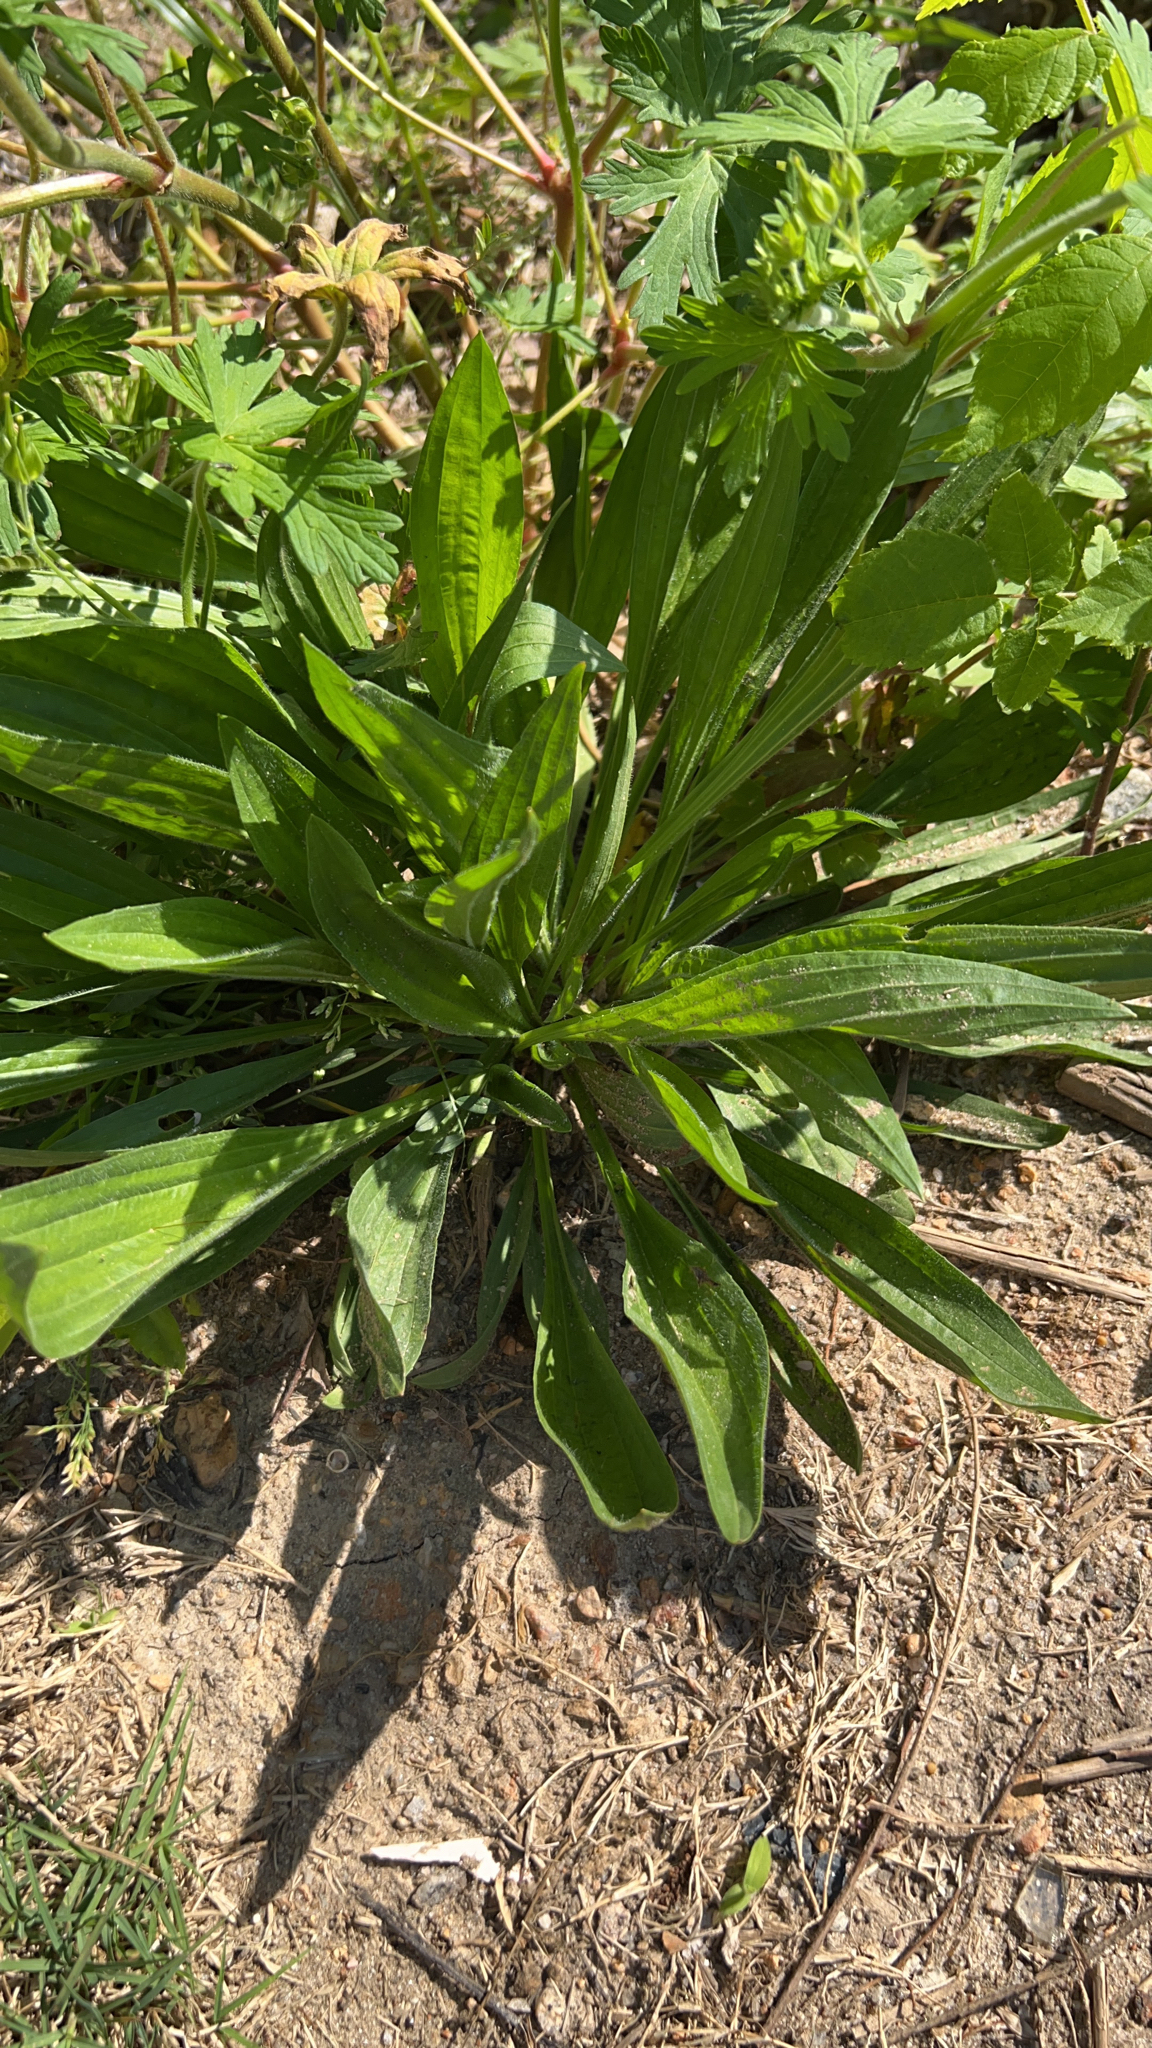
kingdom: Plantae
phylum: Tracheophyta
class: Magnoliopsida
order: Lamiales
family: Plantaginaceae
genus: Plantago
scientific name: Plantago lanceolata
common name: Ribwort plantain
